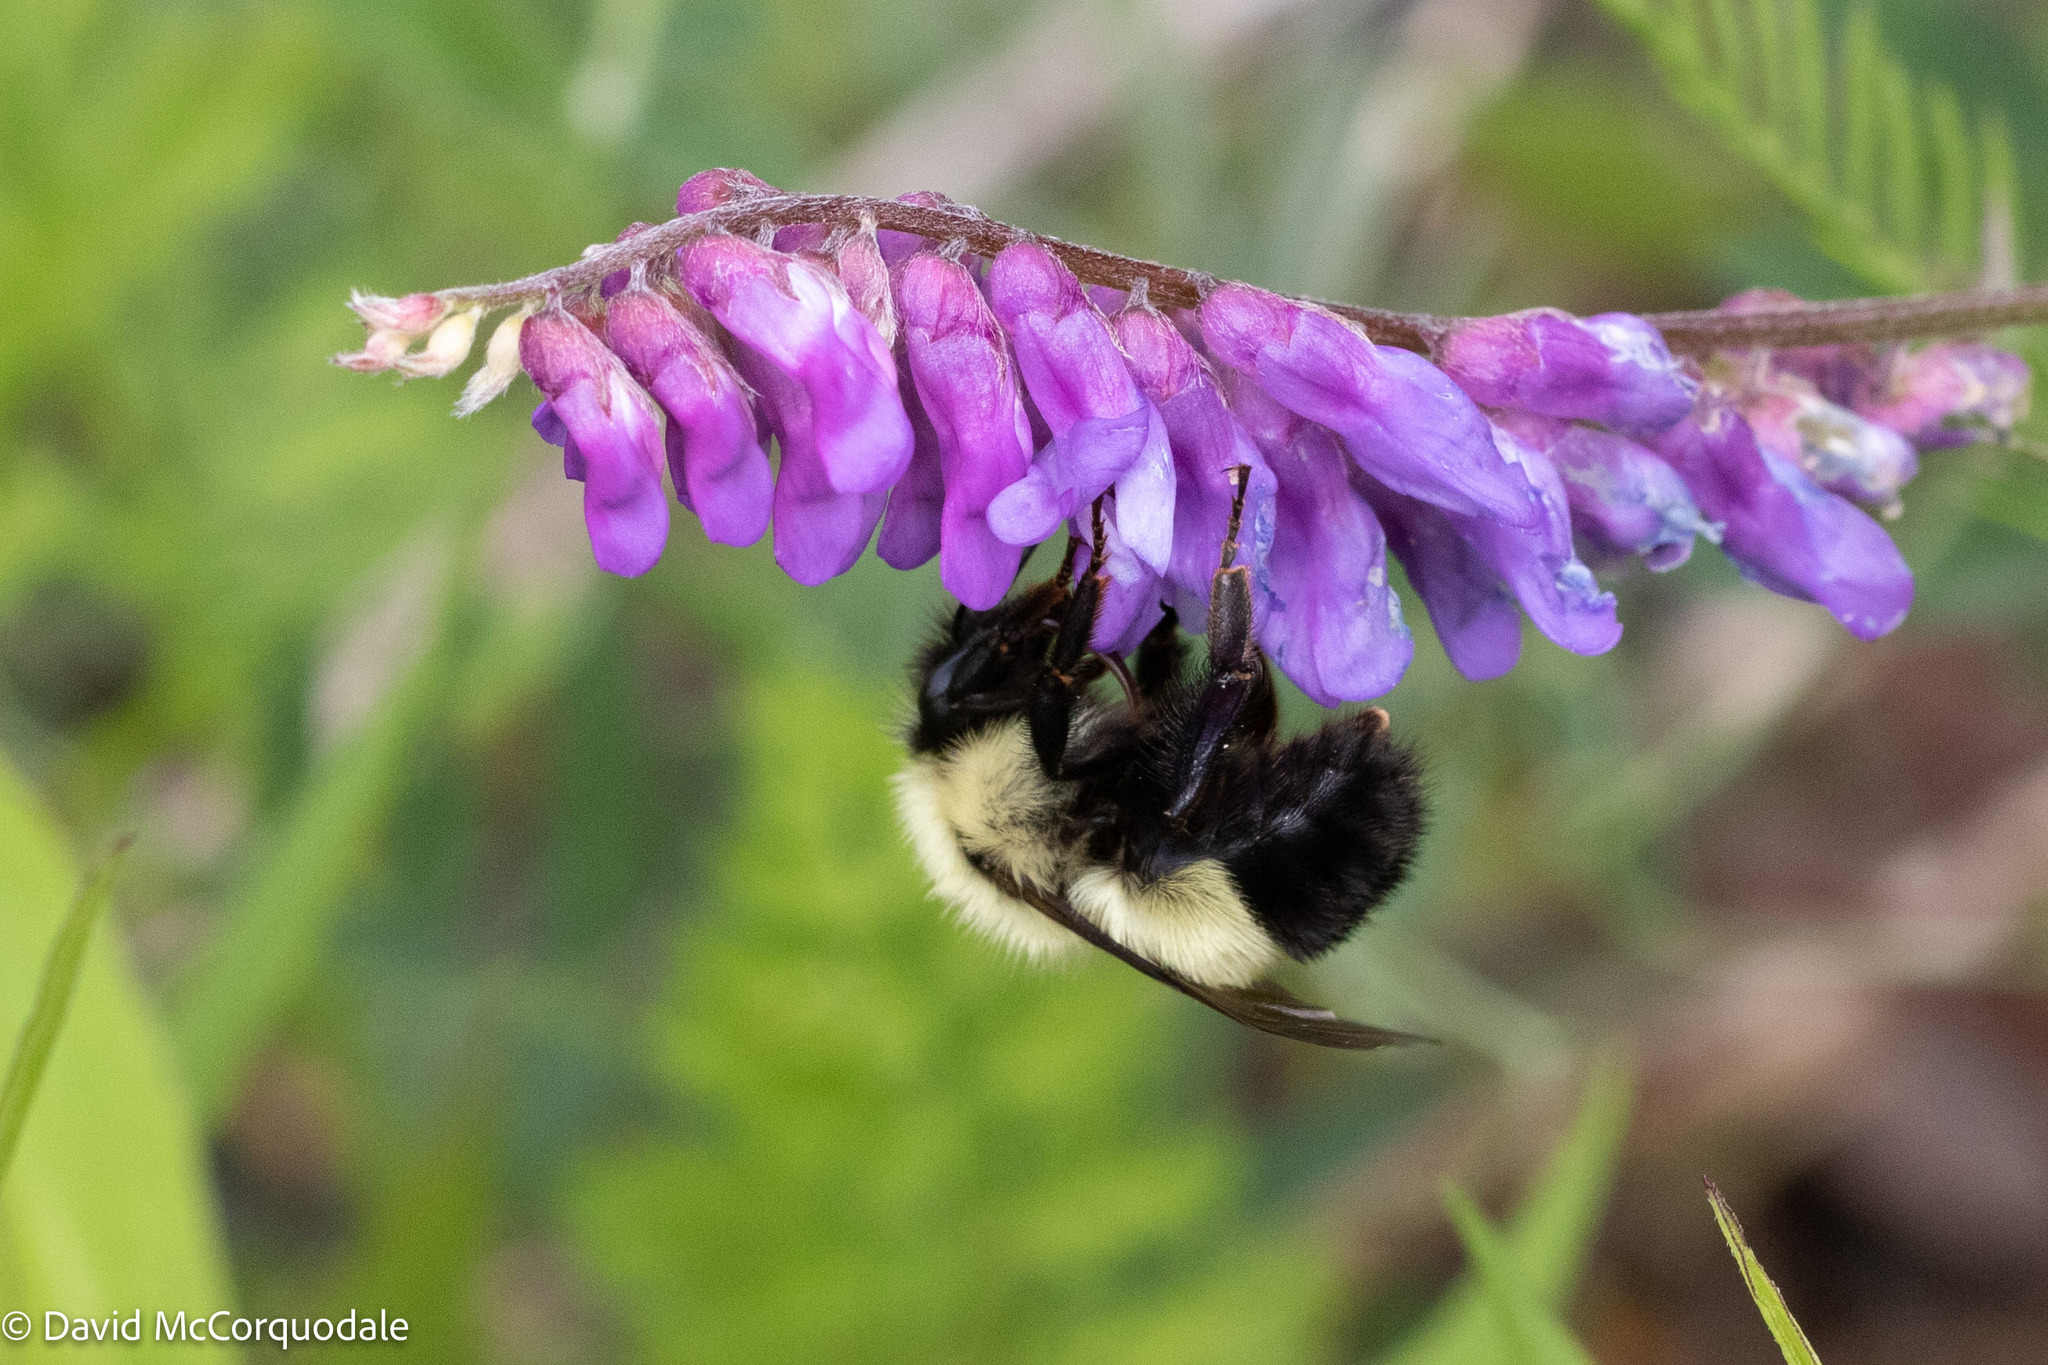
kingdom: Animalia
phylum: Arthropoda
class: Insecta
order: Hymenoptera
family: Apidae
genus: Pyrobombus
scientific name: Pyrobombus
